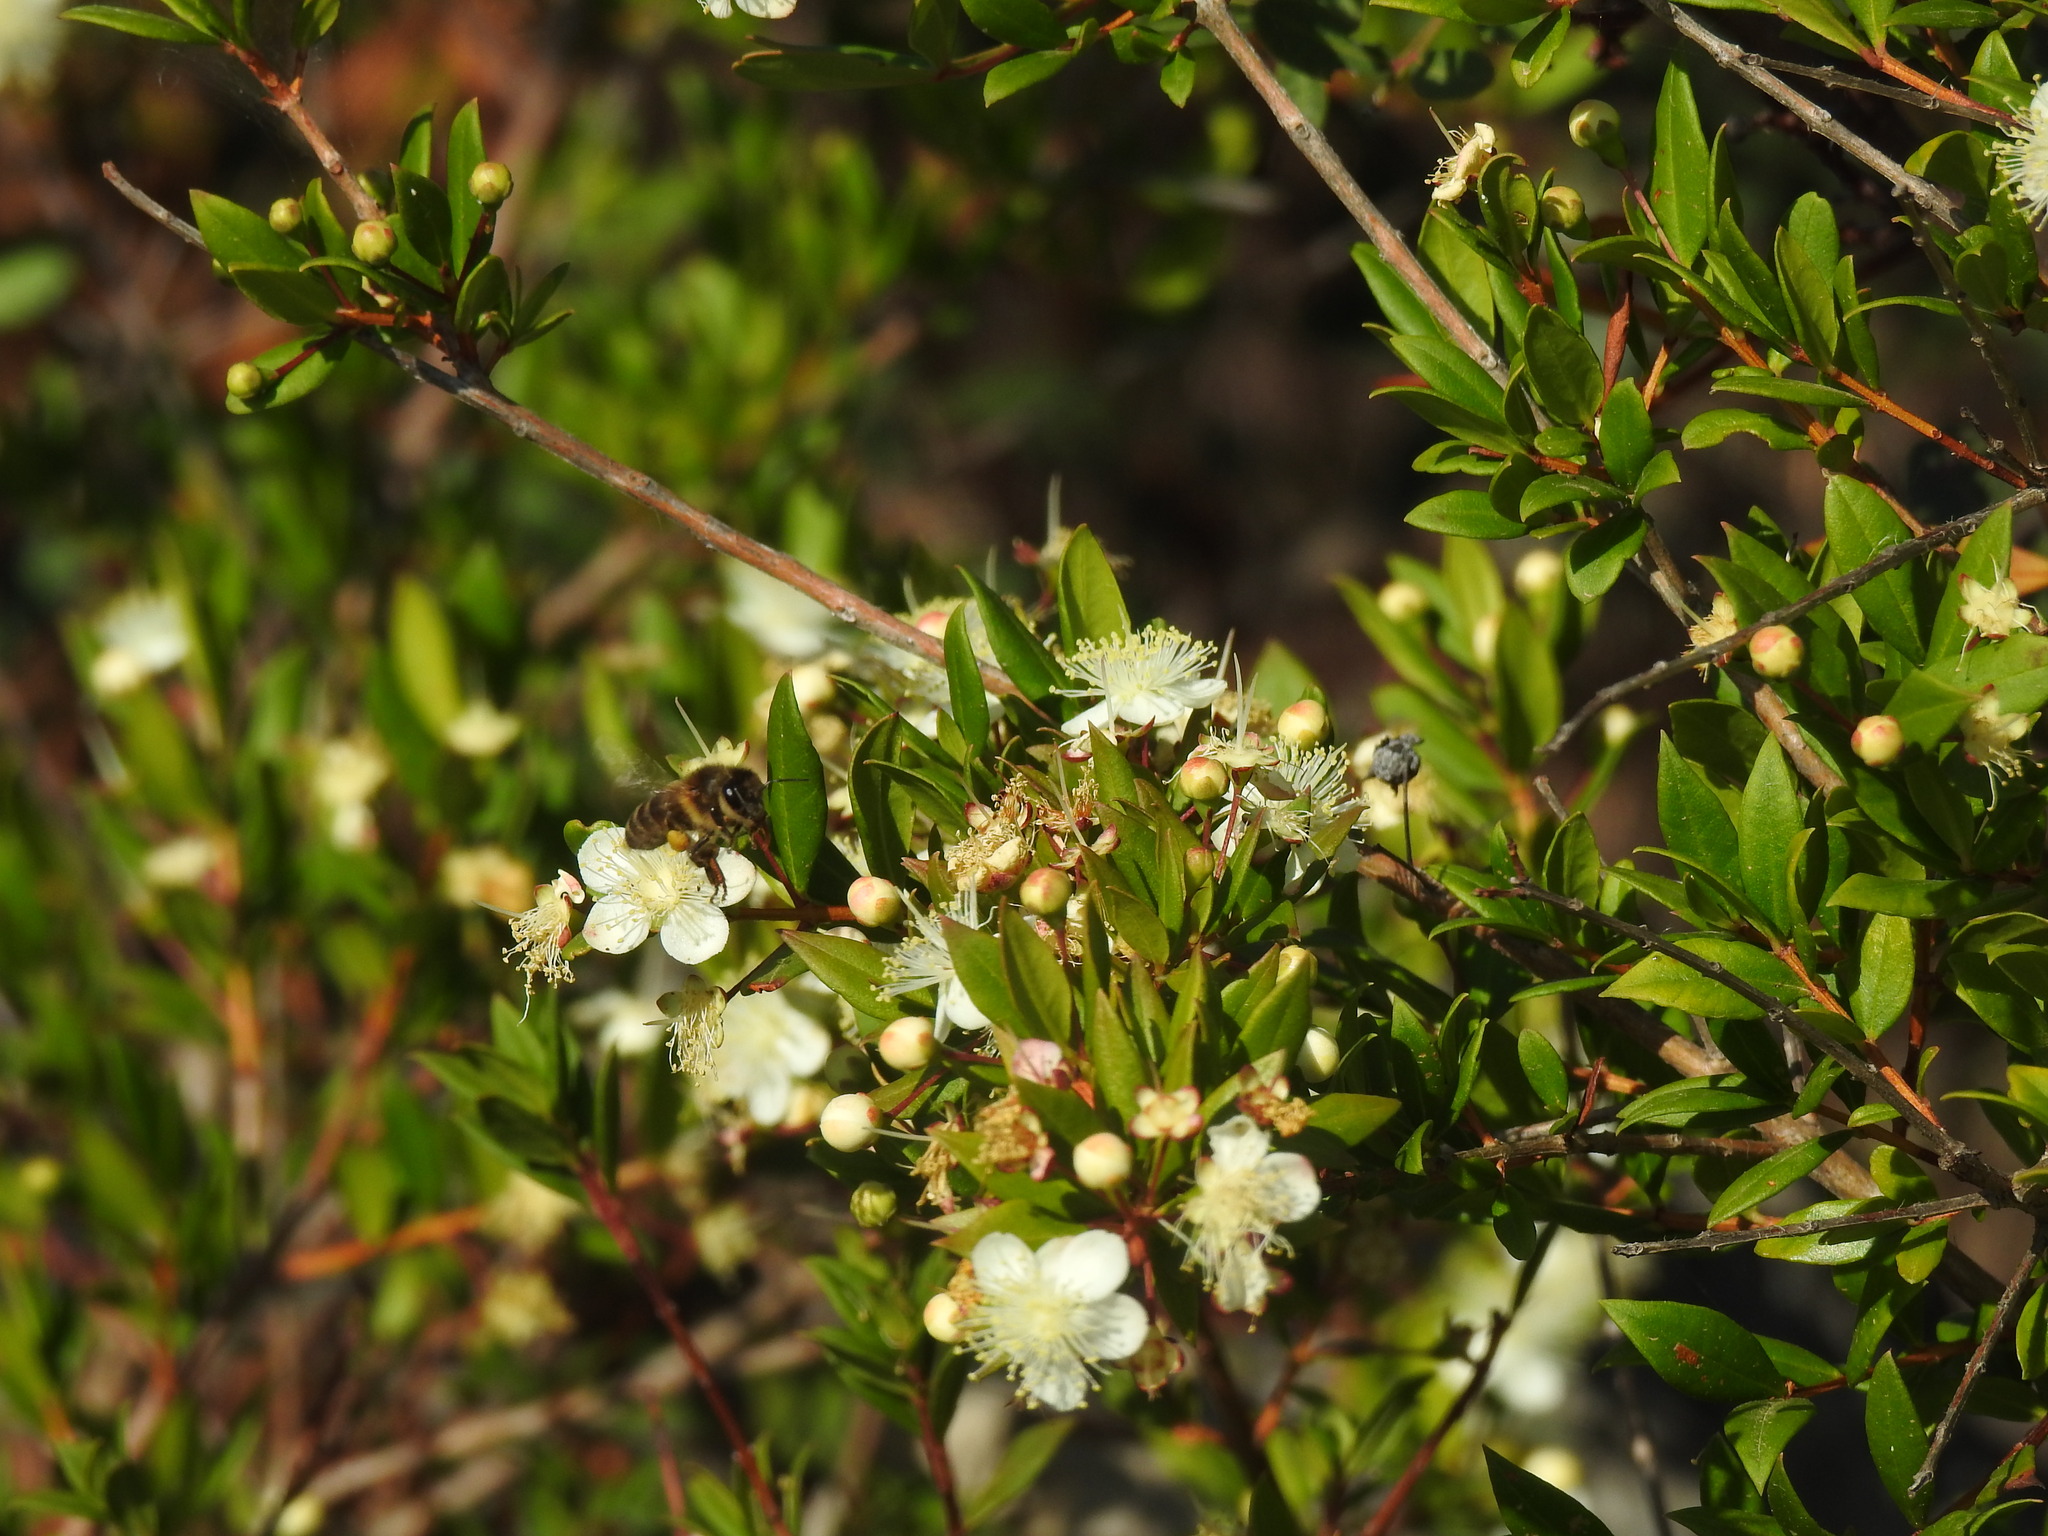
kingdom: Plantae
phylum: Tracheophyta
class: Magnoliopsida
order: Myrtales
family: Myrtaceae
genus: Myrtus
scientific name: Myrtus communis
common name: Myrtle
